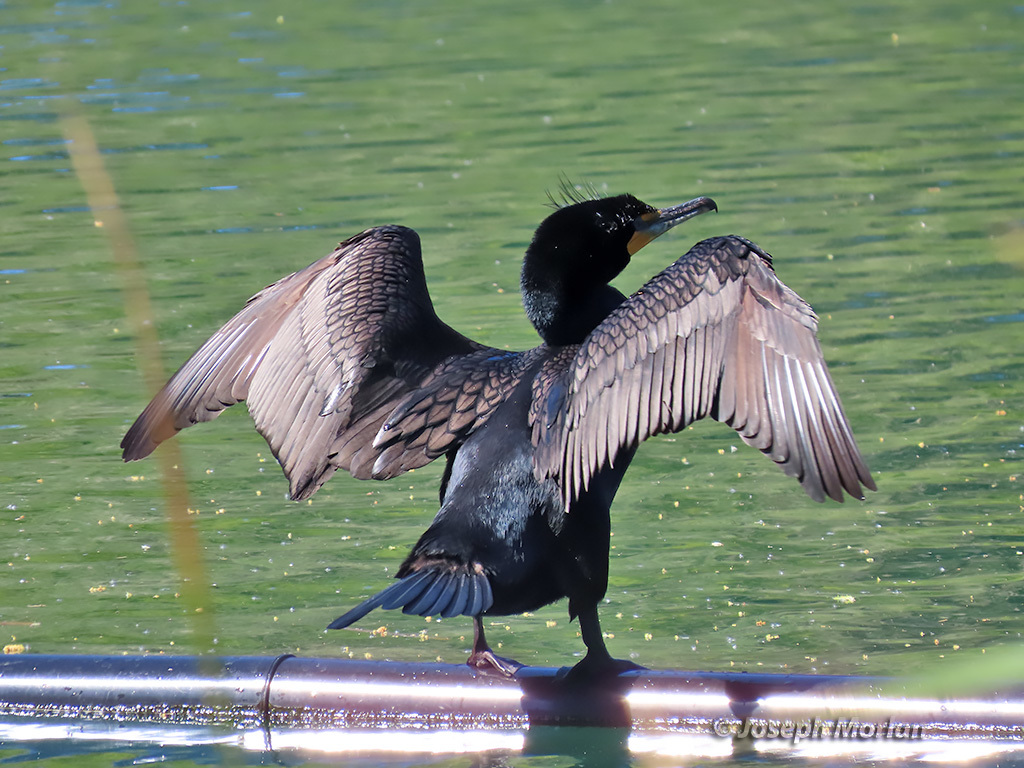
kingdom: Animalia
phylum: Chordata
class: Aves
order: Suliformes
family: Phalacrocoracidae
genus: Phalacrocorax
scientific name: Phalacrocorax auritus
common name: Double-crested cormorant
